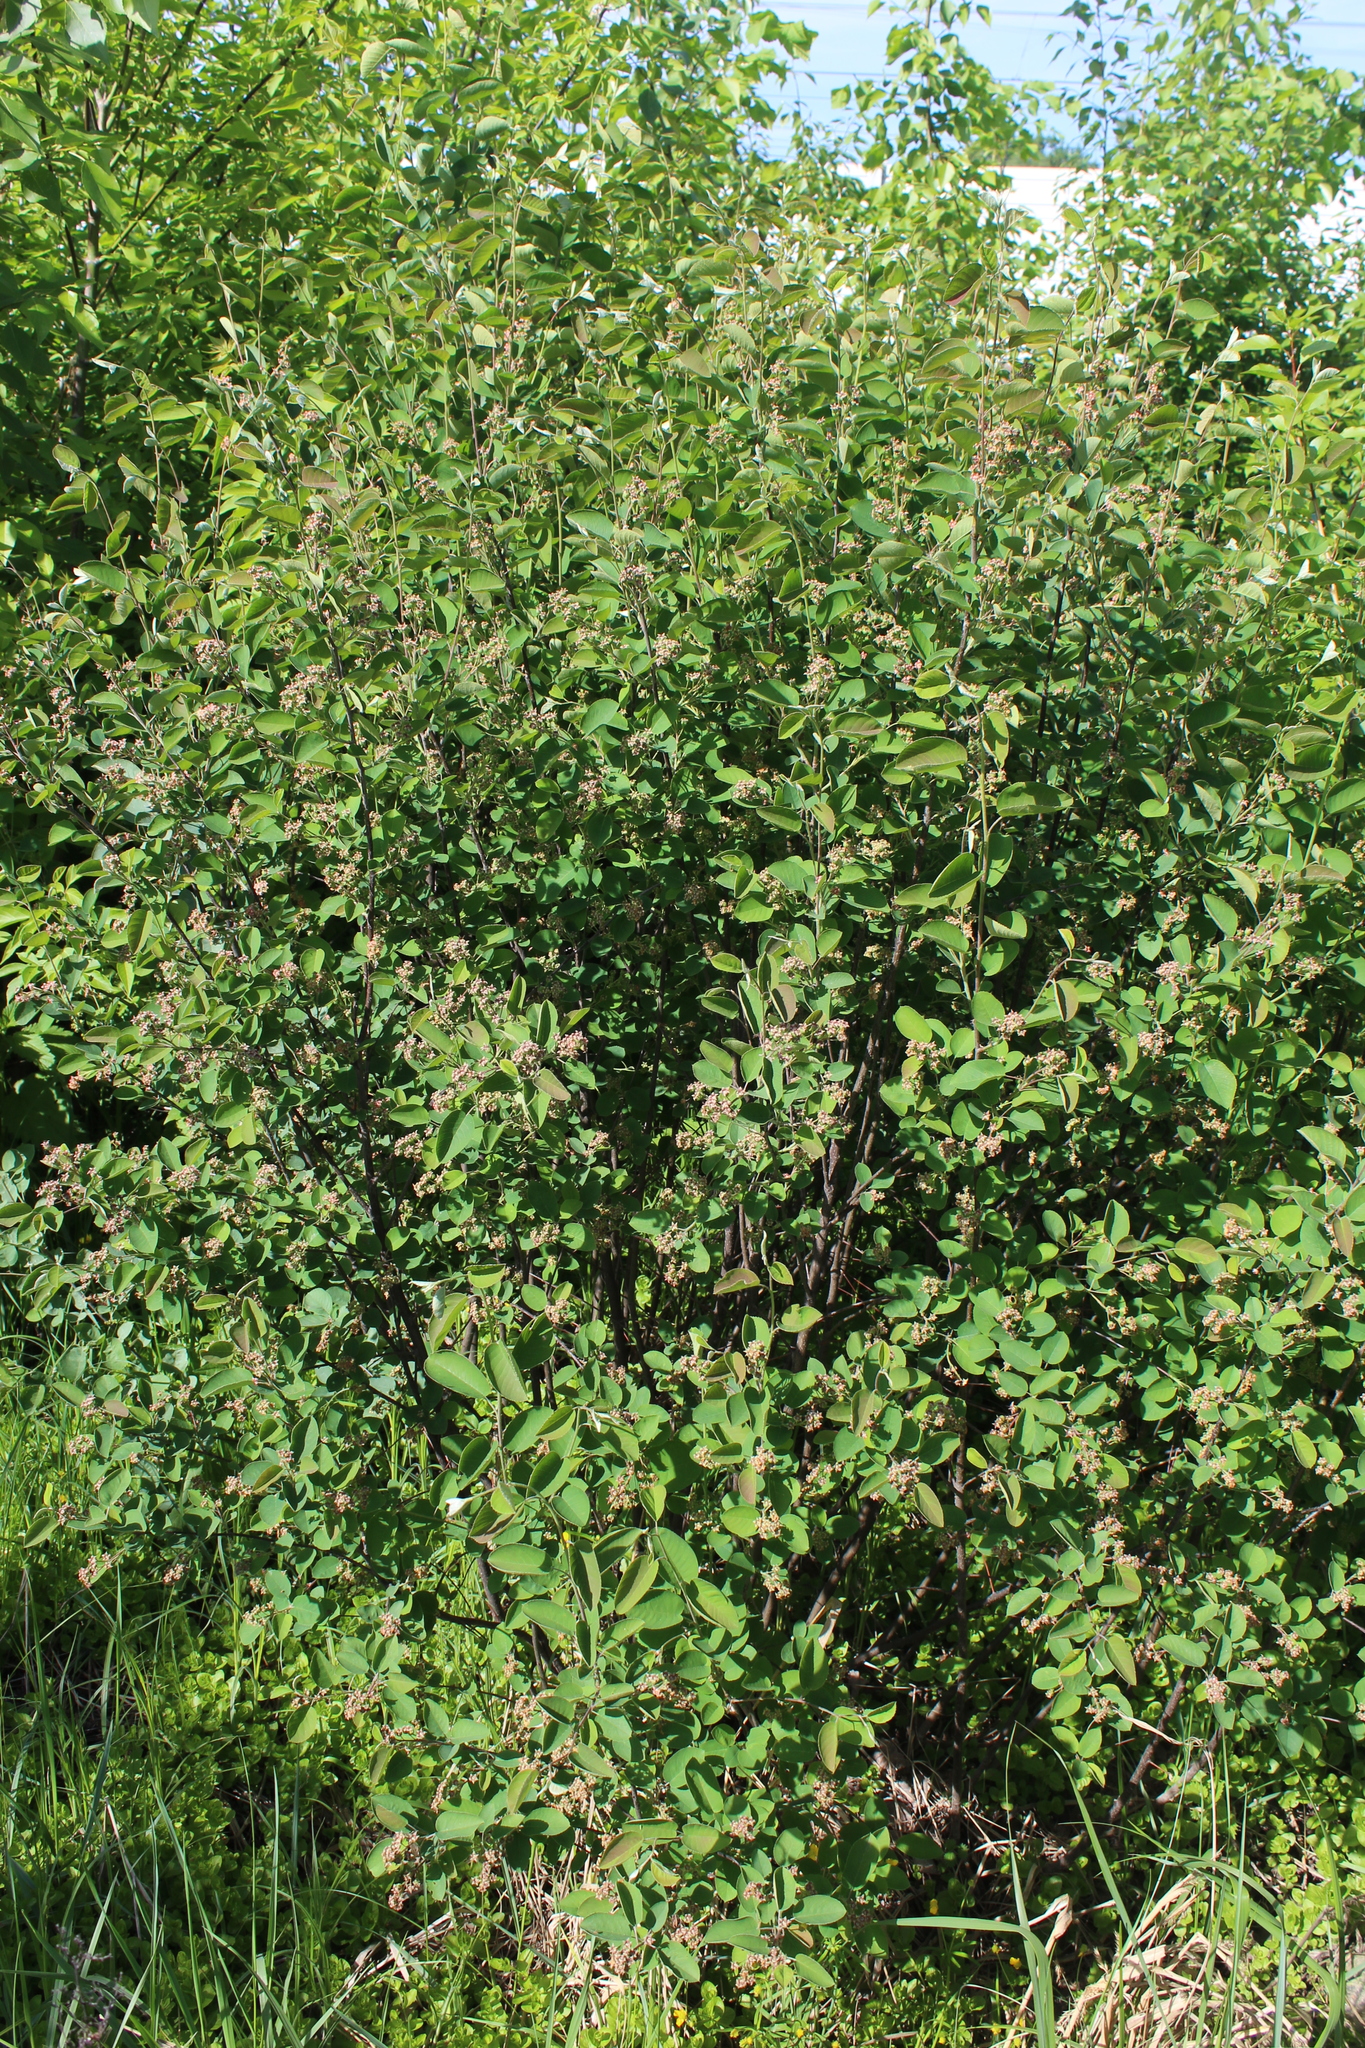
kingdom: Plantae
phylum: Tracheophyta
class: Magnoliopsida
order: Rosales
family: Rosaceae
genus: Amelanchier
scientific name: Amelanchier
